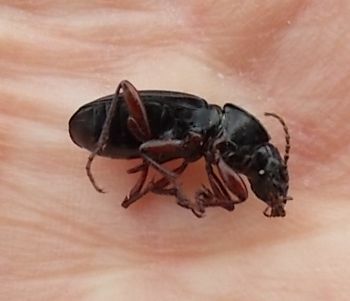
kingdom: Animalia
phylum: Arthropoda
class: Insecta
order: Coleoptera
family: Carabidae
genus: Pterostichus
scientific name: Pterostichus madidus
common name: Black clock
